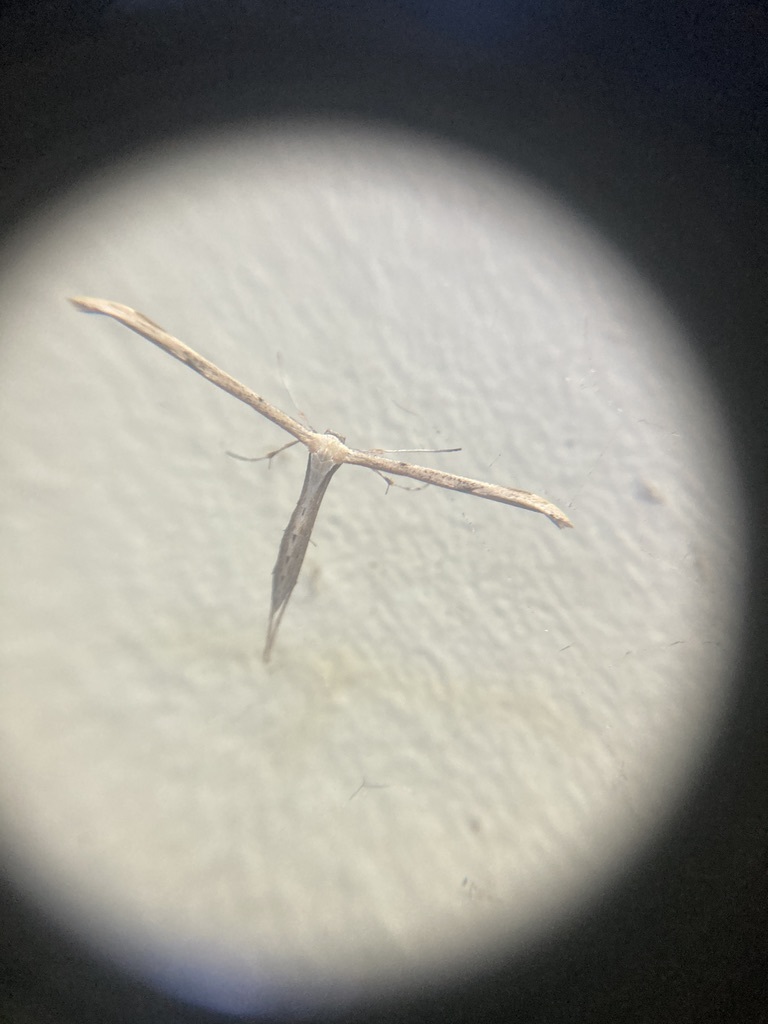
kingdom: Animalia
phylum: Arthropoda
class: Insecta
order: Lepidoptera
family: Pterophoridae
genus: Emmelina
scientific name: Emmelina monodactyla
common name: Common plume
